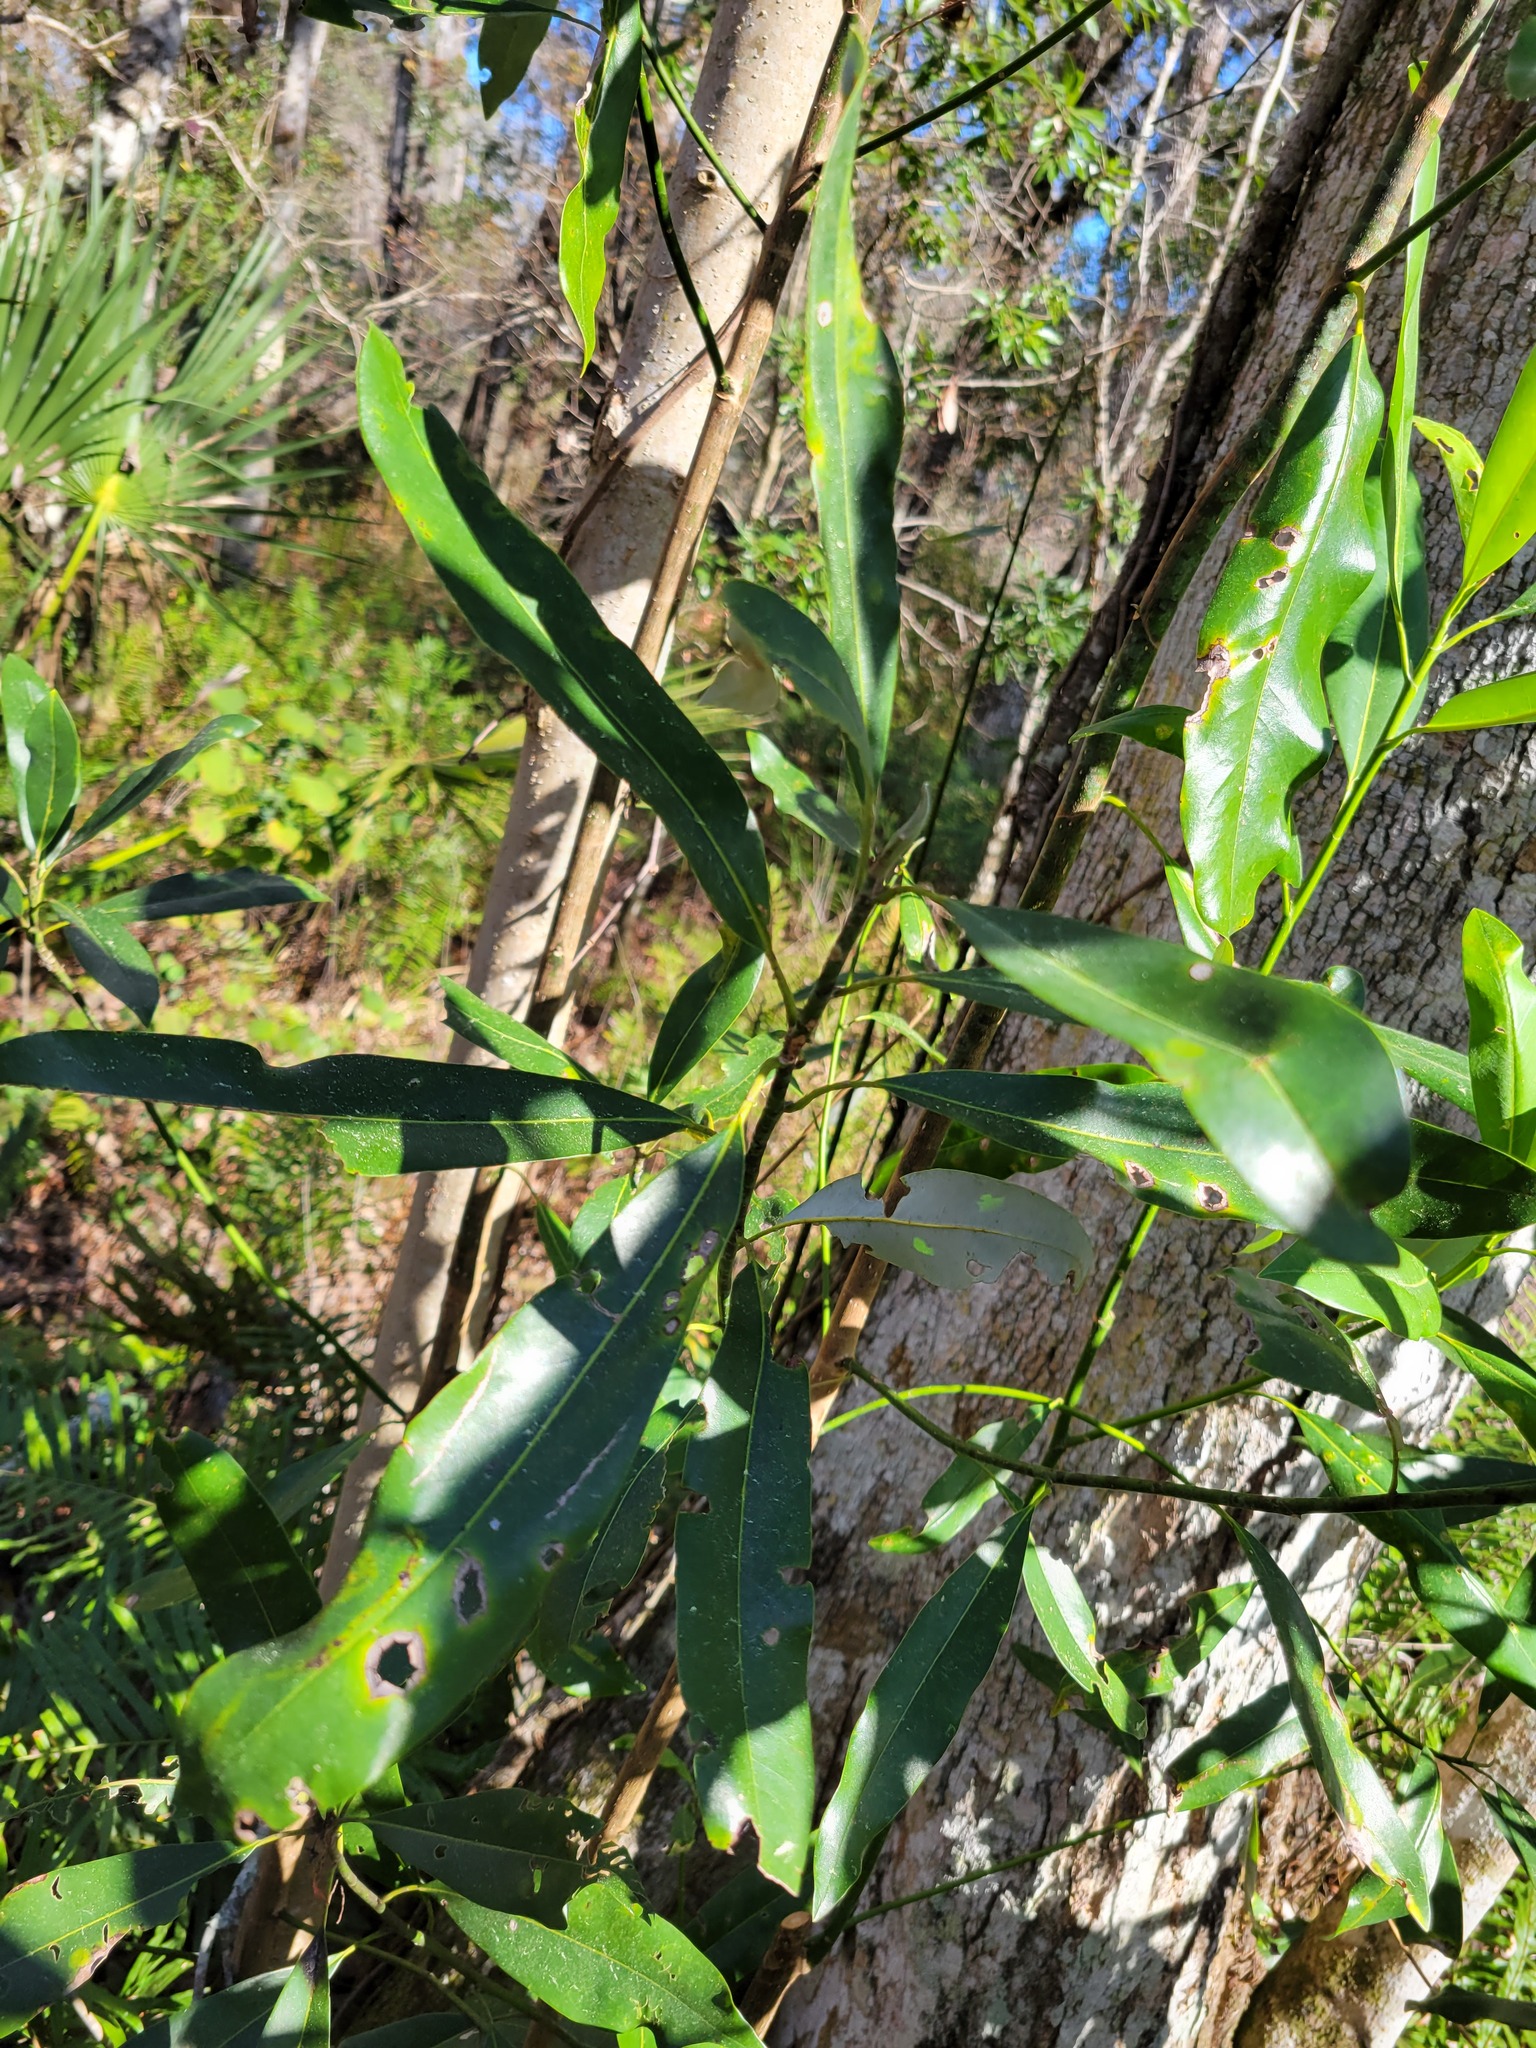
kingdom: Plantae
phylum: Tracheophyta
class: Magnoliopsida
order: Magnoliales
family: Magnoliaceae
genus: Magnolia
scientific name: Magnolia virginiana
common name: Swamp bay
